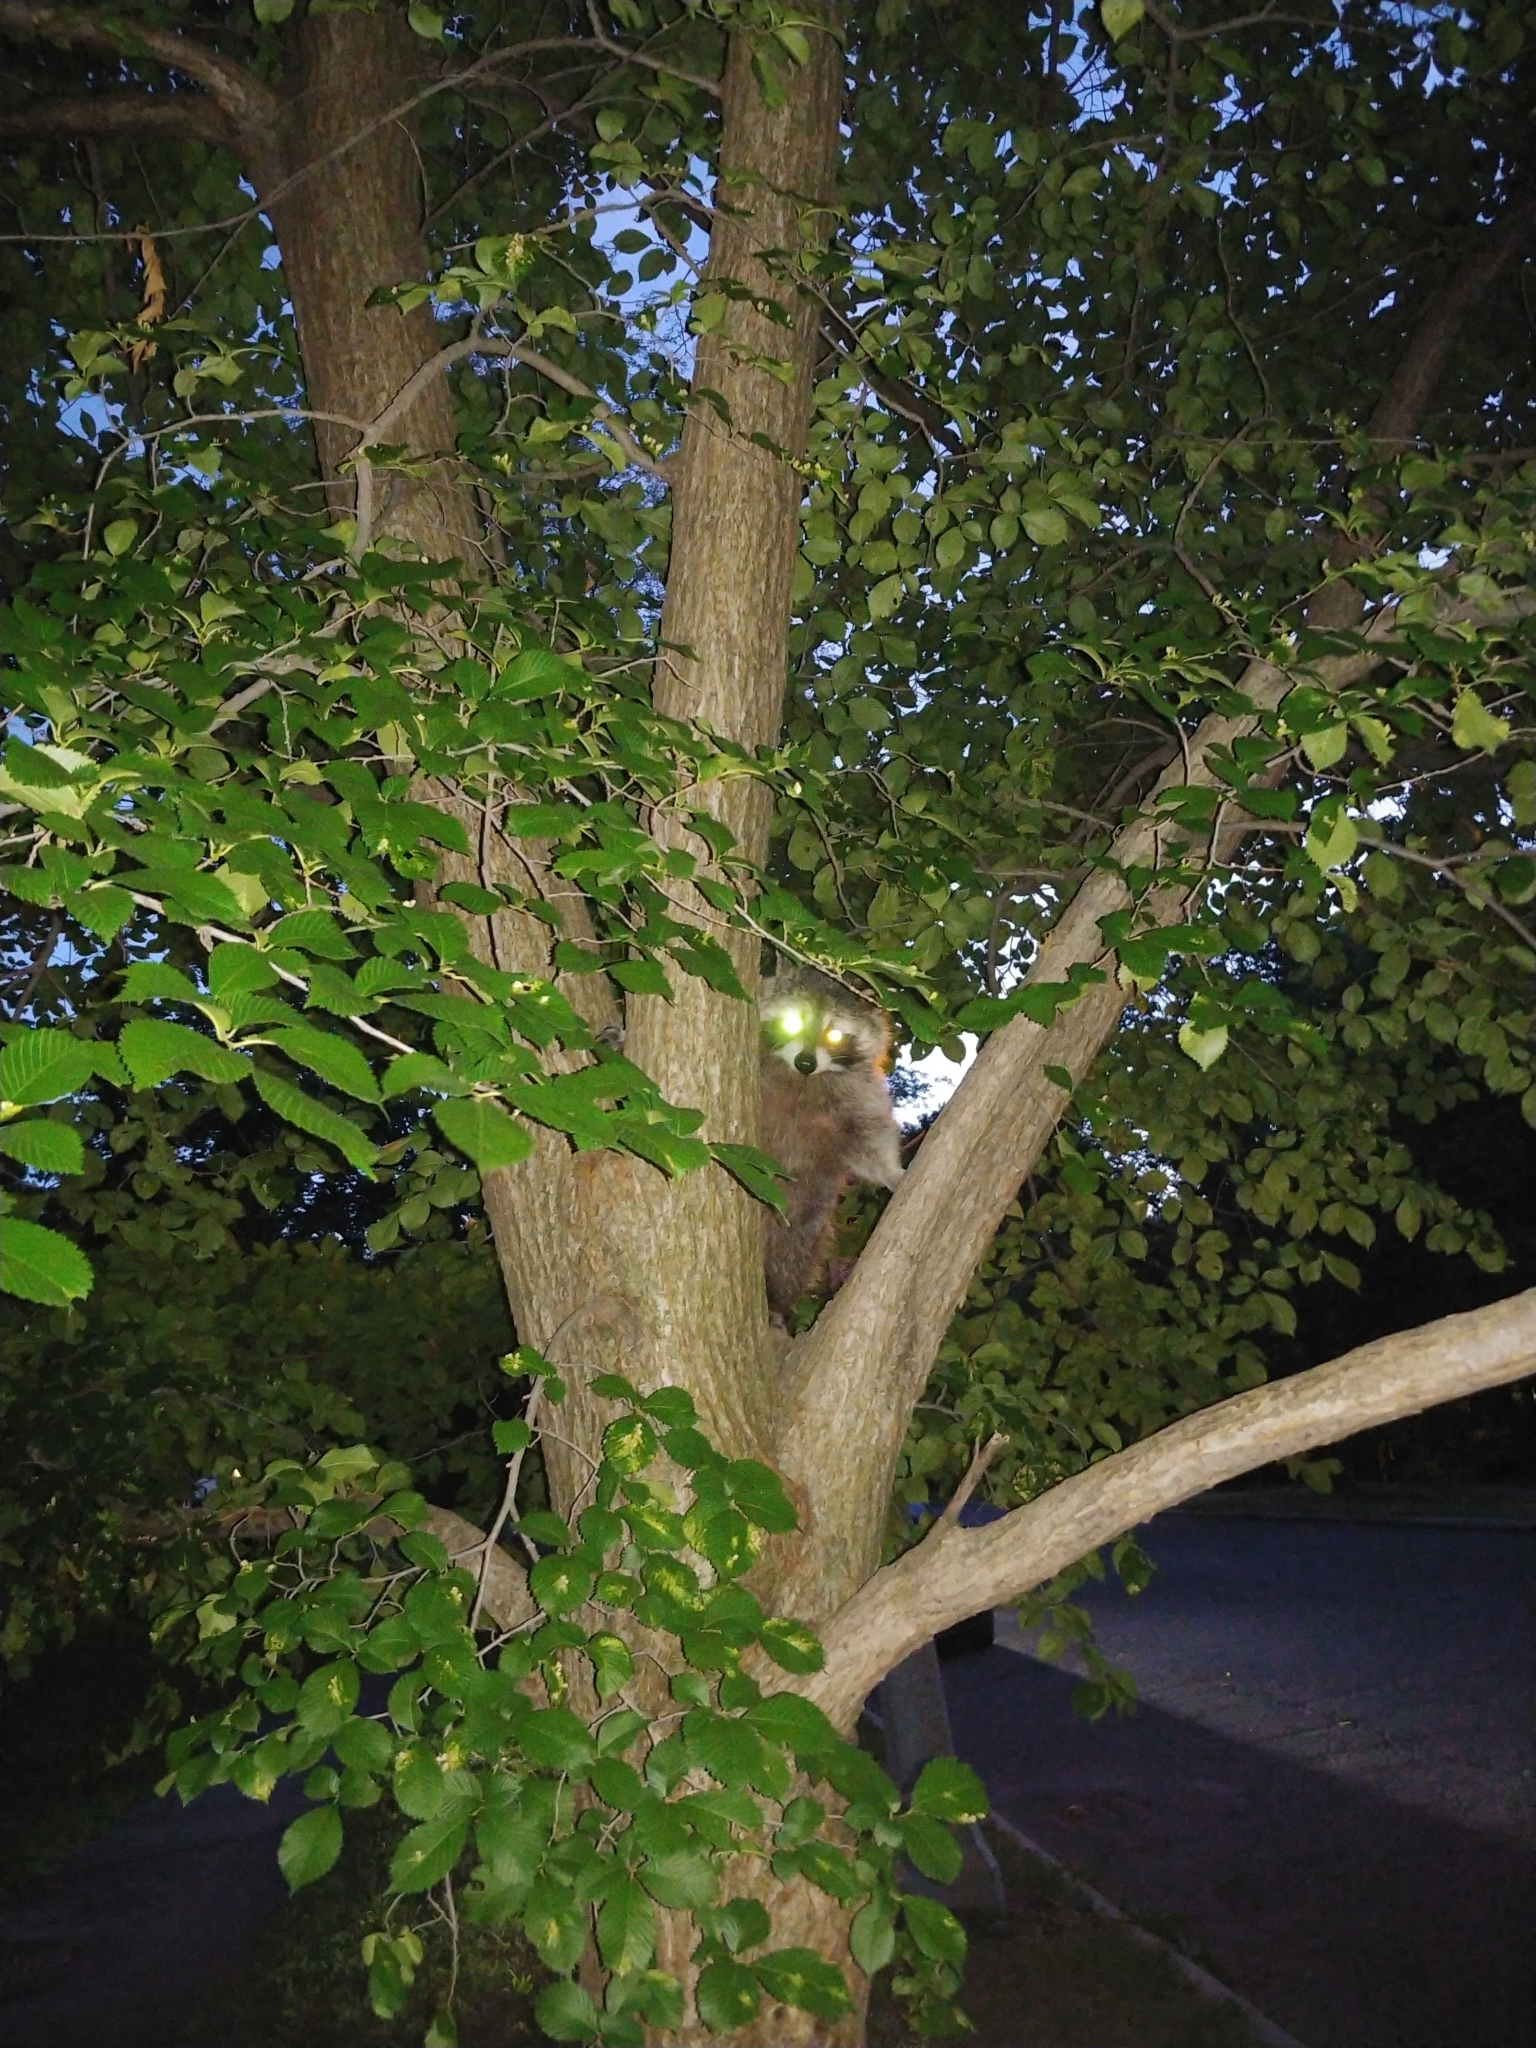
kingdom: Animalia
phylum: Chordata
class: Mammalia
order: Carnivora
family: Procyonidae
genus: Procyon
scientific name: Procyon lotor
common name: Raccoon
